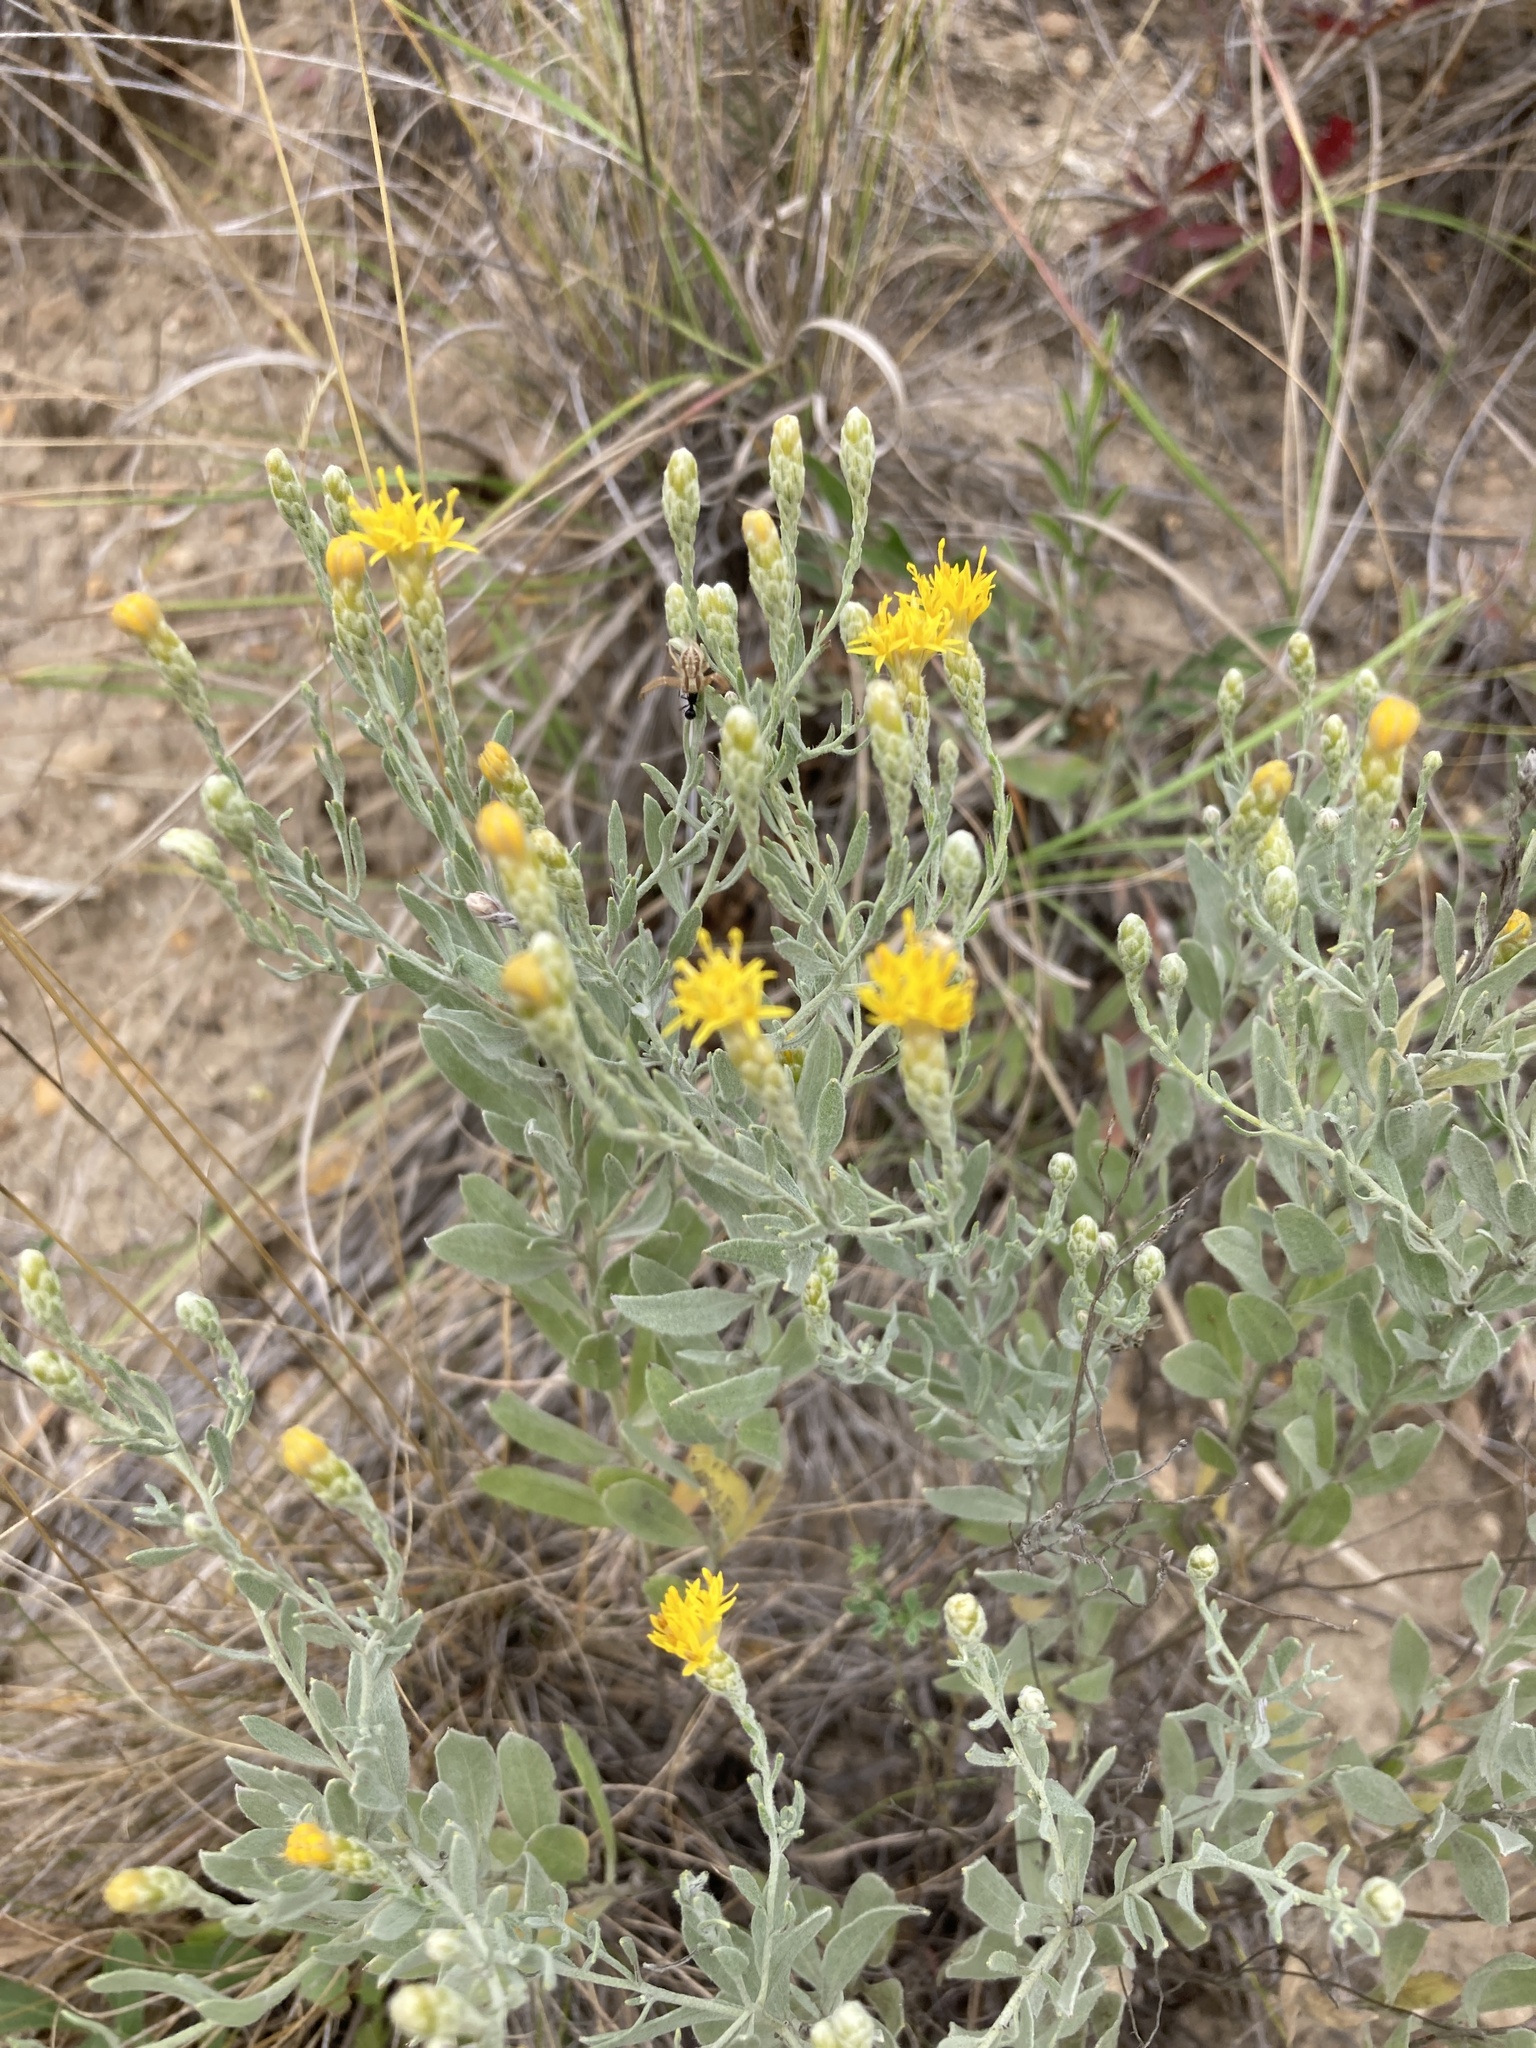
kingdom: Plantae
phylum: Tracheophyta
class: Magnoliopsida
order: Asterales
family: Asteraceae
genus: Galatella
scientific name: Galatella villosa
